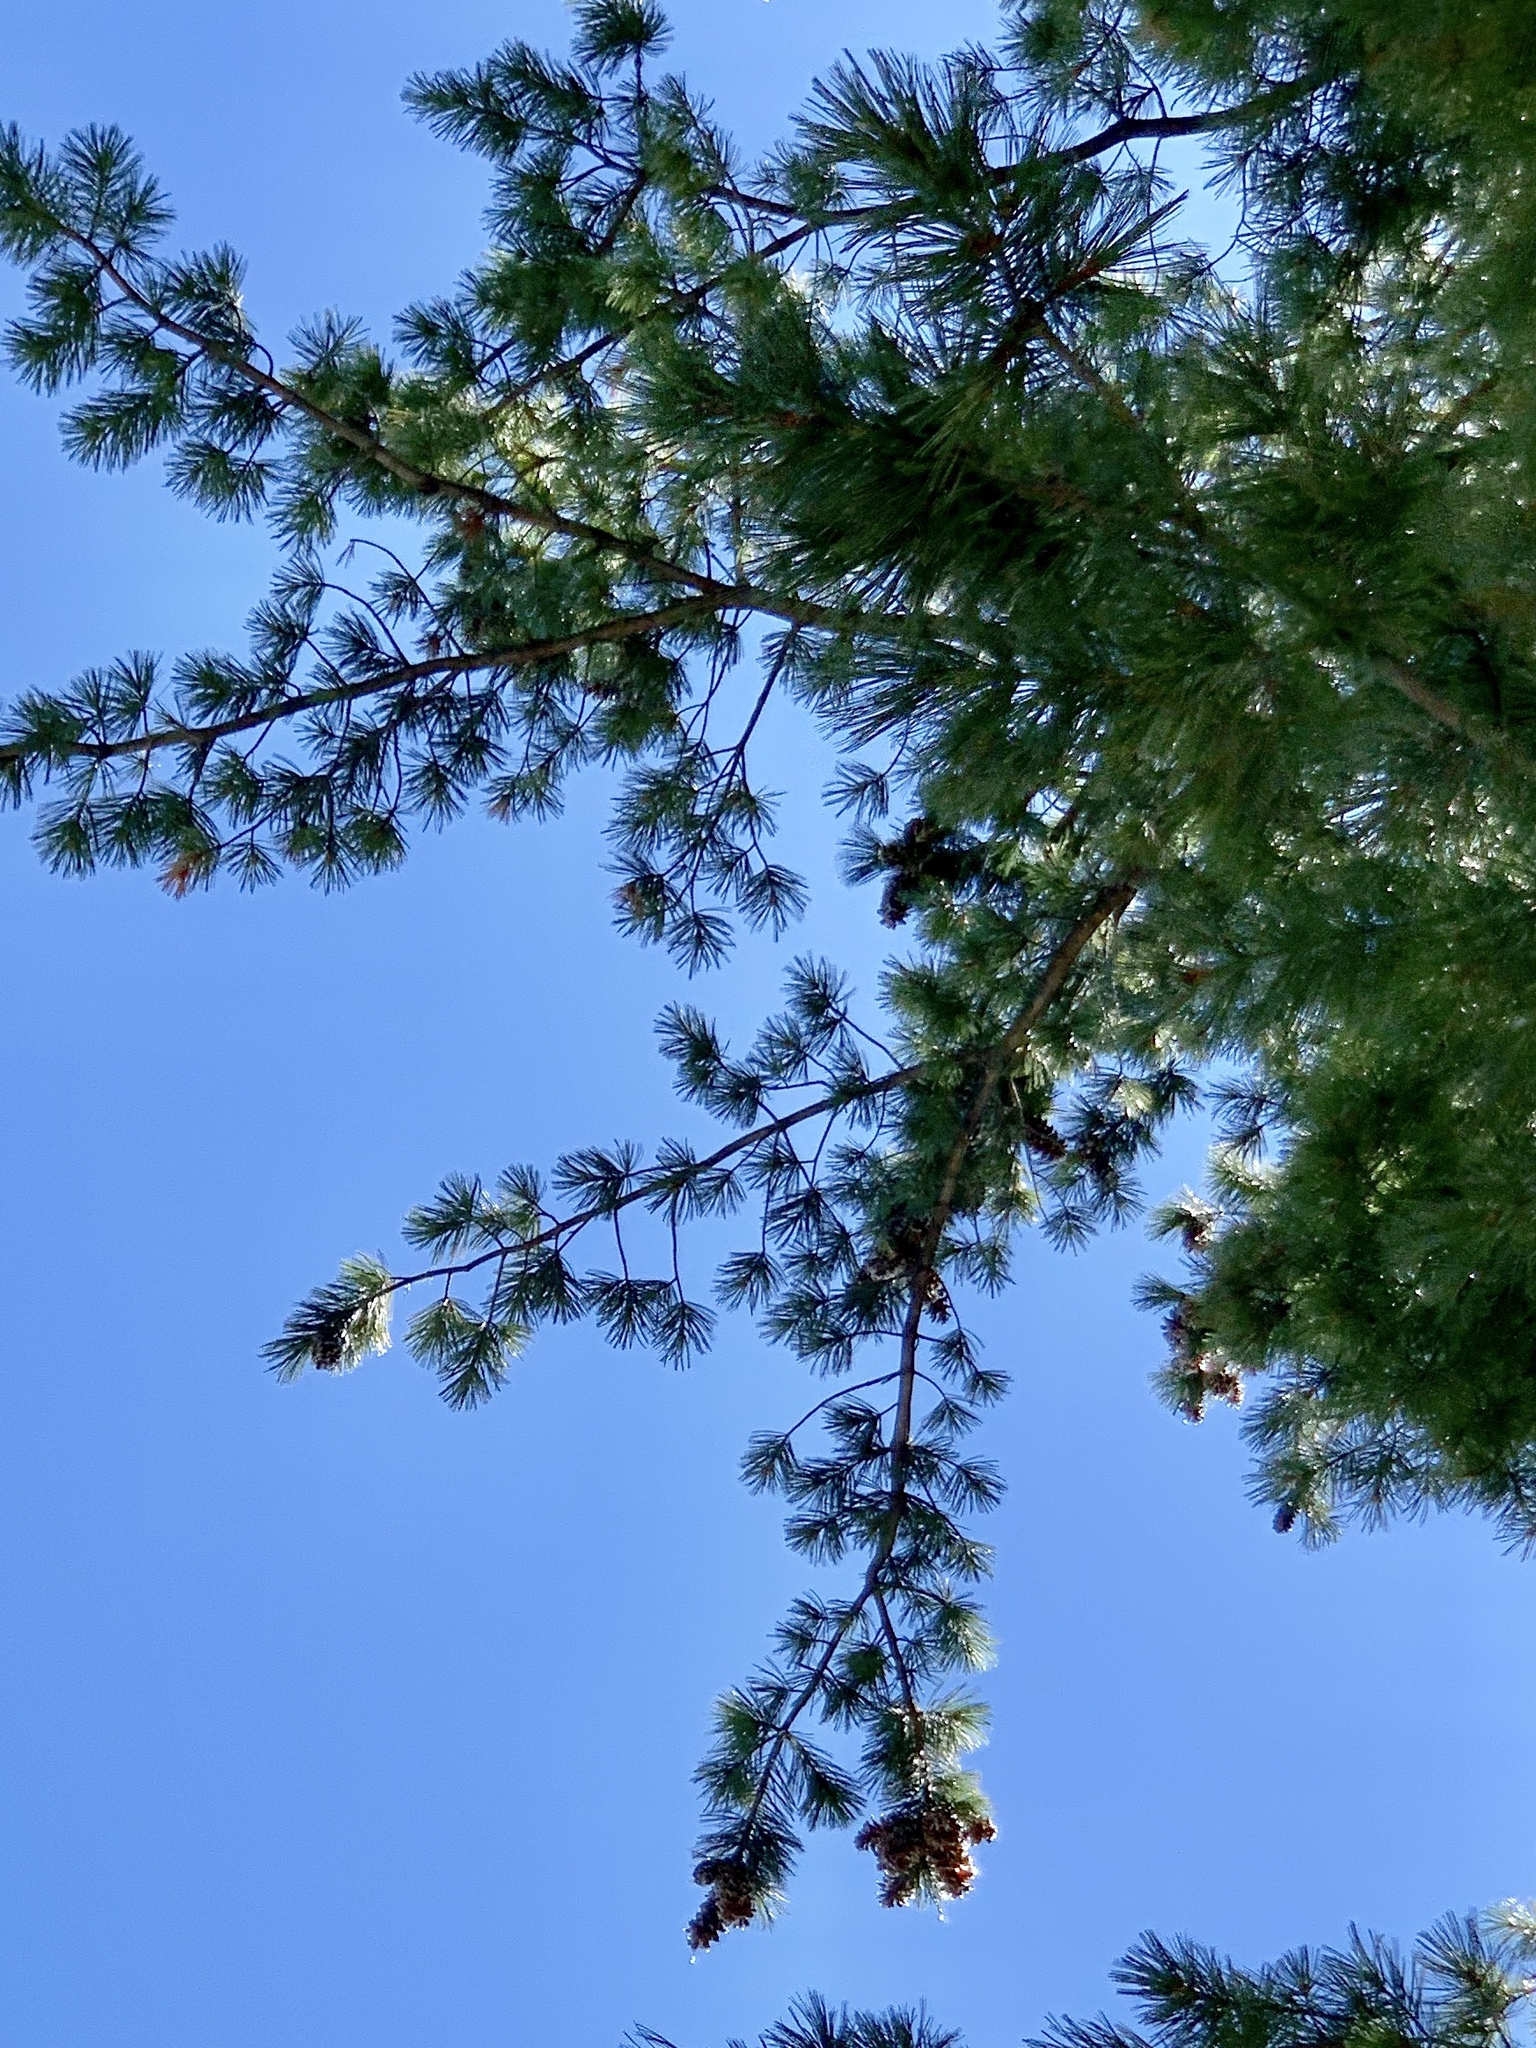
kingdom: Plantae
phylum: Tracheophyta
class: Pinopsida
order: Pinales
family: Pinaceae
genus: Pinus
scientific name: Pinus strobiformis
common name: Southwestern white pine
